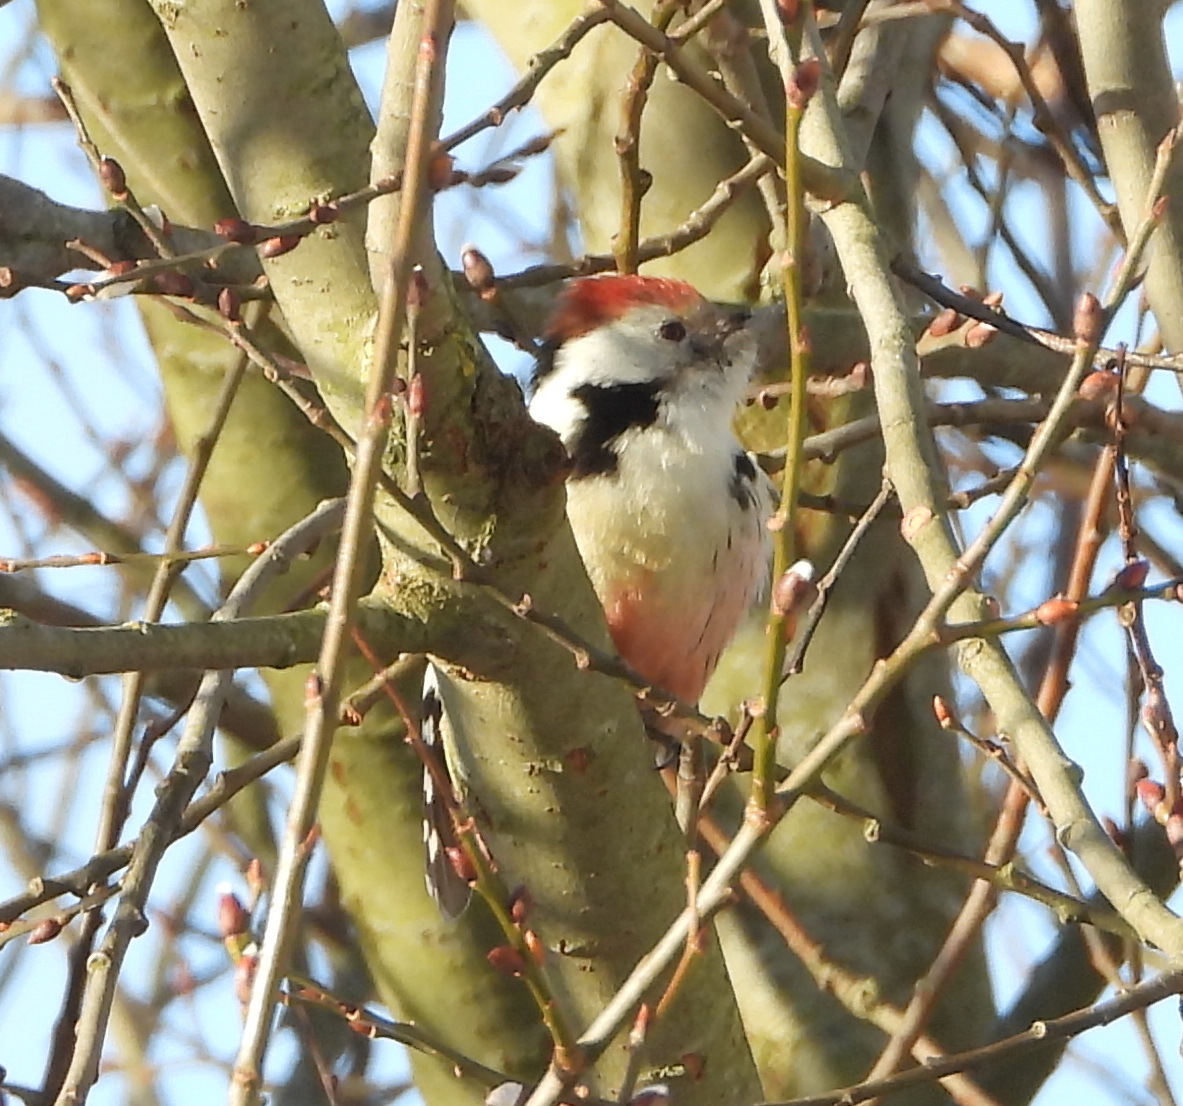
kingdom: Animalia
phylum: Chordata
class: Aves
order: Piciformes
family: Picidae
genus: Dendrocoptes
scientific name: Dendrocoptes medius
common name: Middle spotted woodpecker
